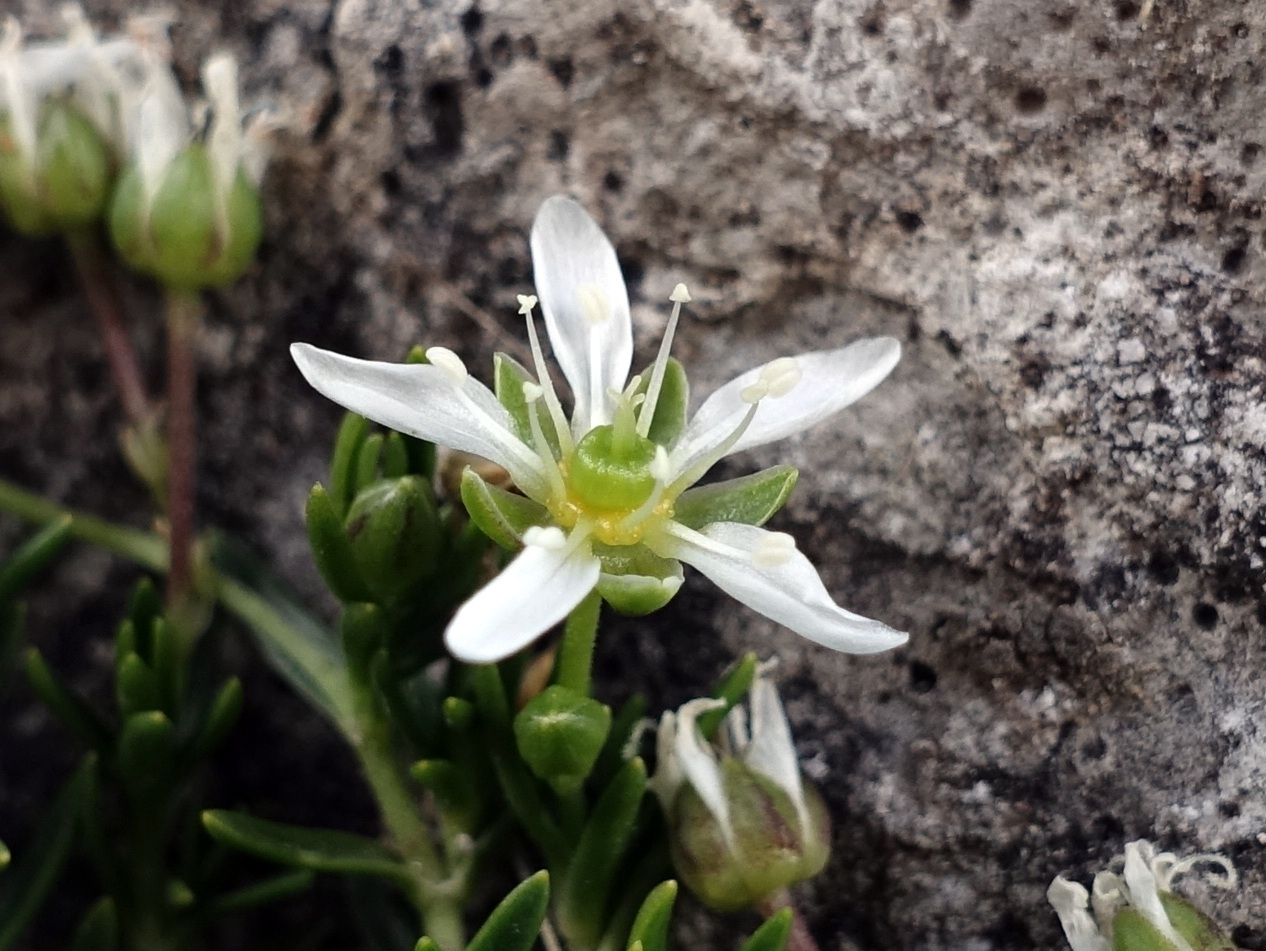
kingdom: Plantae
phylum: Tracheophyta
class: Magnoliopsida
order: Caryophyllales
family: Caryophyllaceae
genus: Moehringia
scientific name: Moehringia ciliata
